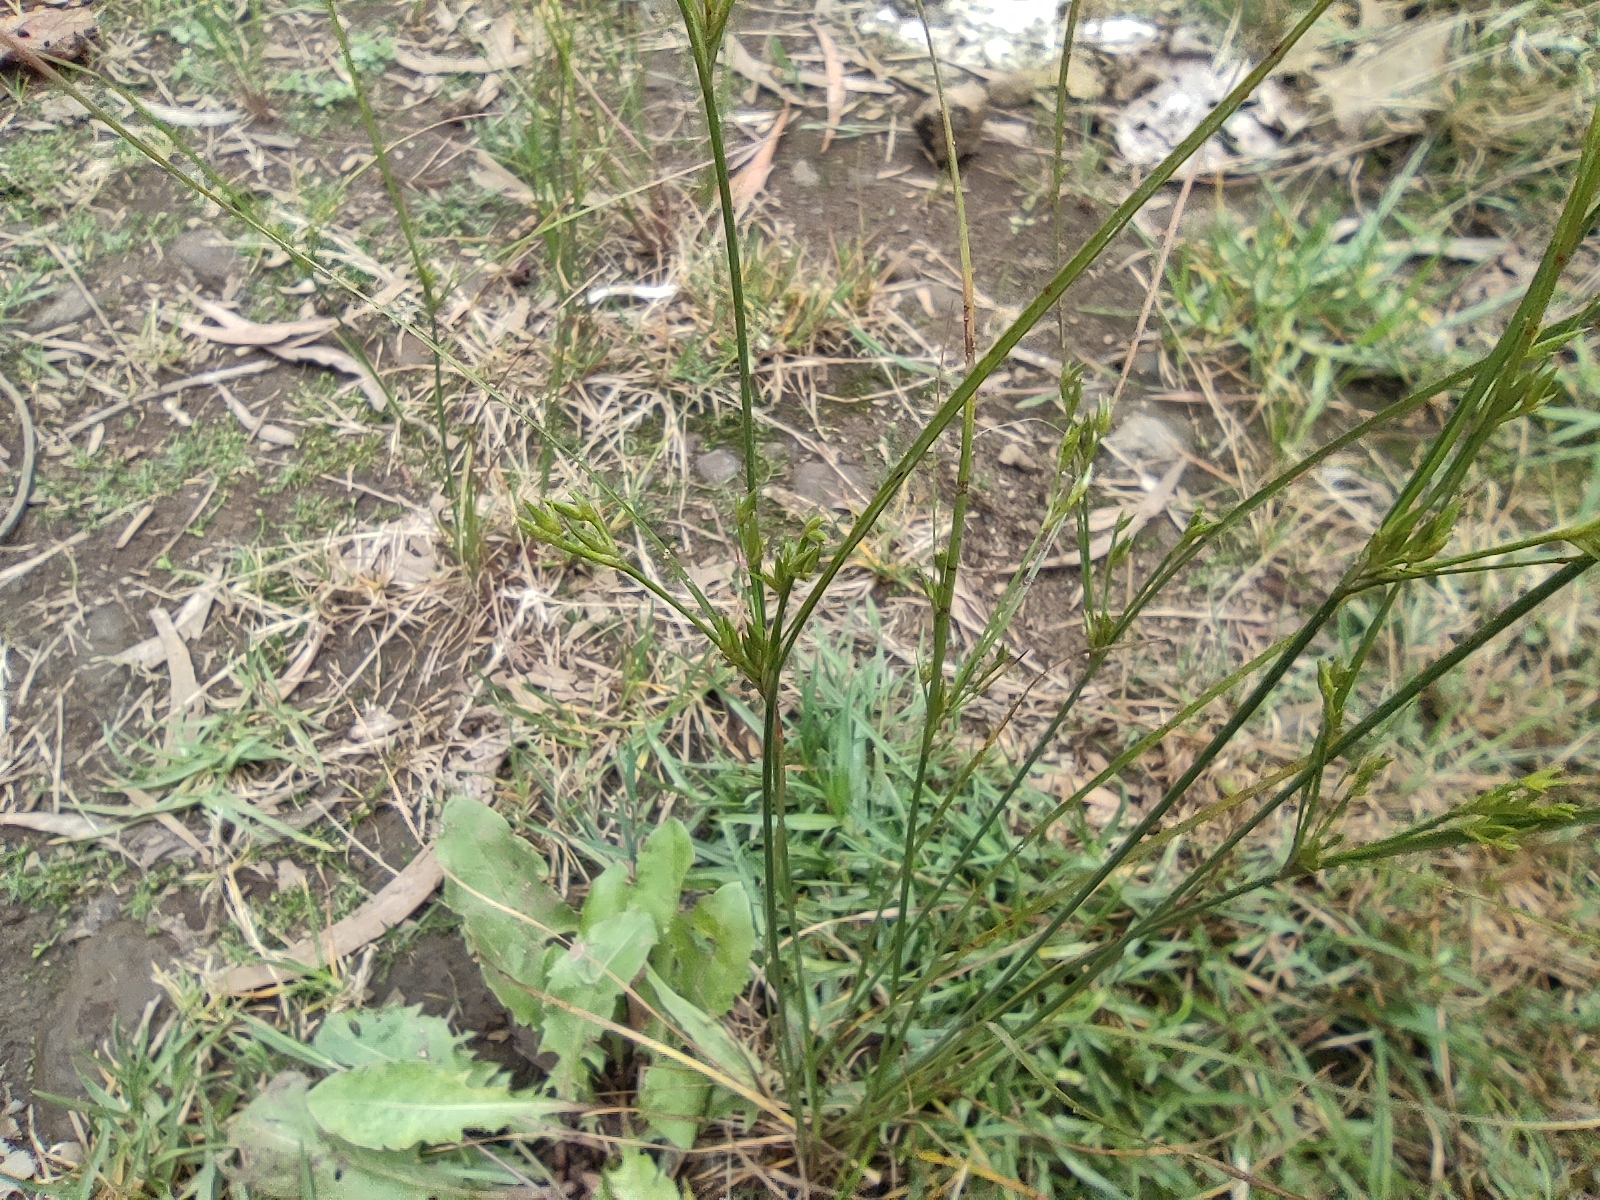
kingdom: Plantae
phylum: Tracheophyta
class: Liliopsida
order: Poales
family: Juncaceae
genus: Juncus
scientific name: Juncus tenuis
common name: Slender rush
